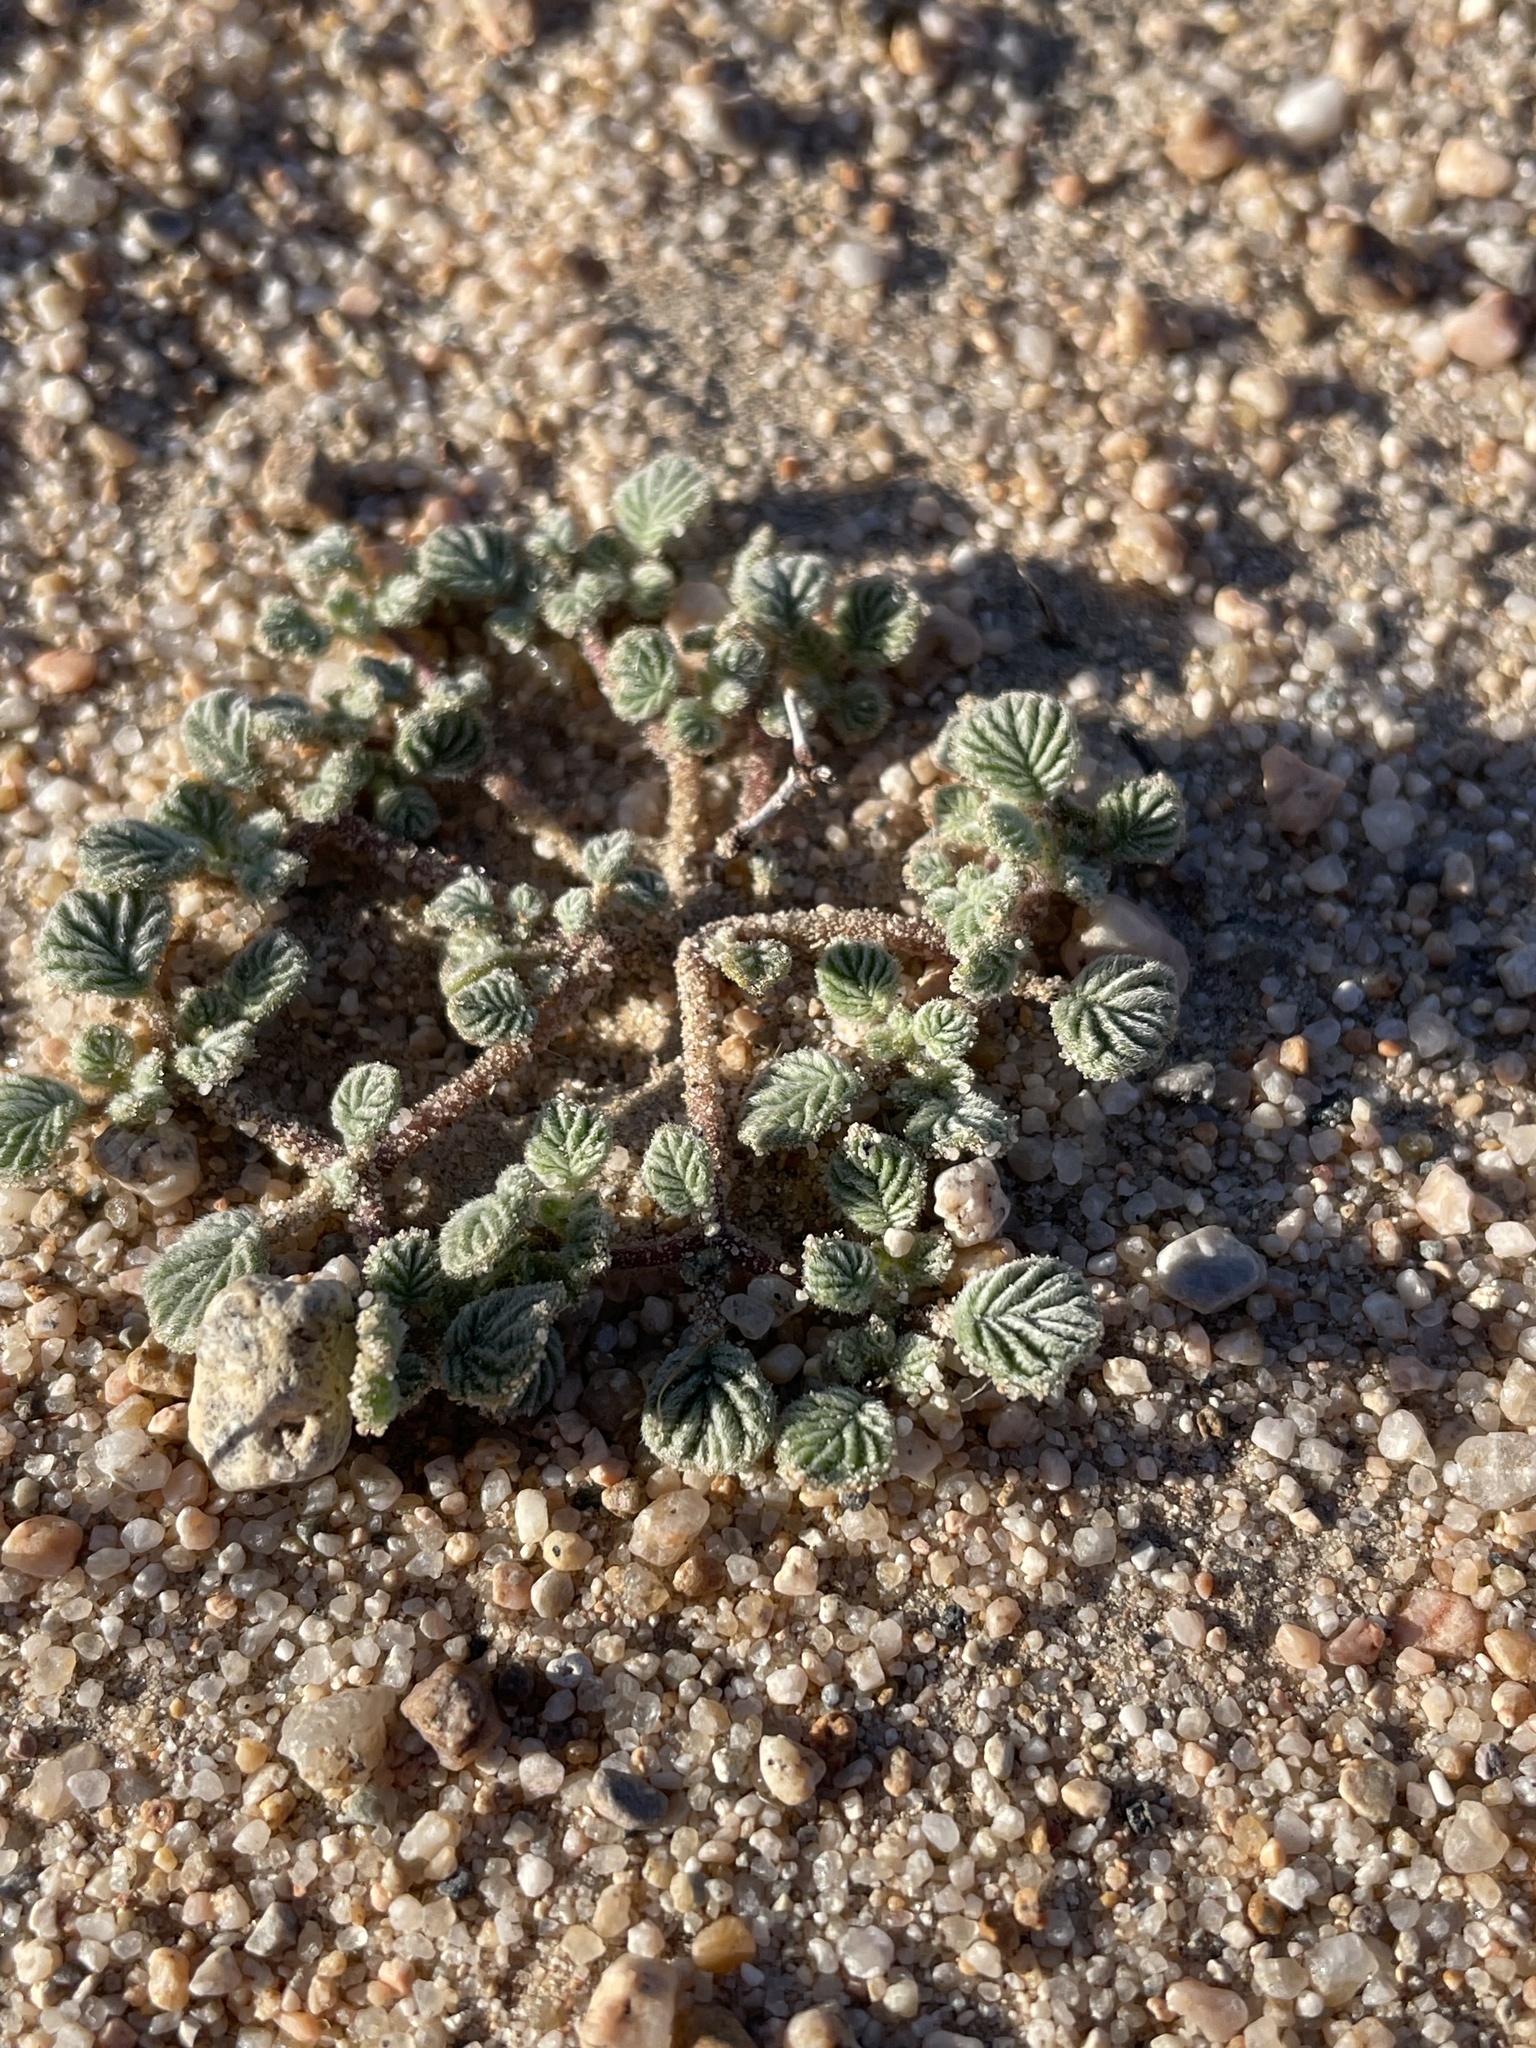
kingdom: Plantae
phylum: Tracheophyta
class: Magnoliopsida
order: Boraginales
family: Ehretiaceae
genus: Tiquilia
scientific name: Tiquilia plicata
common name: Fan-leaf tiquilia
